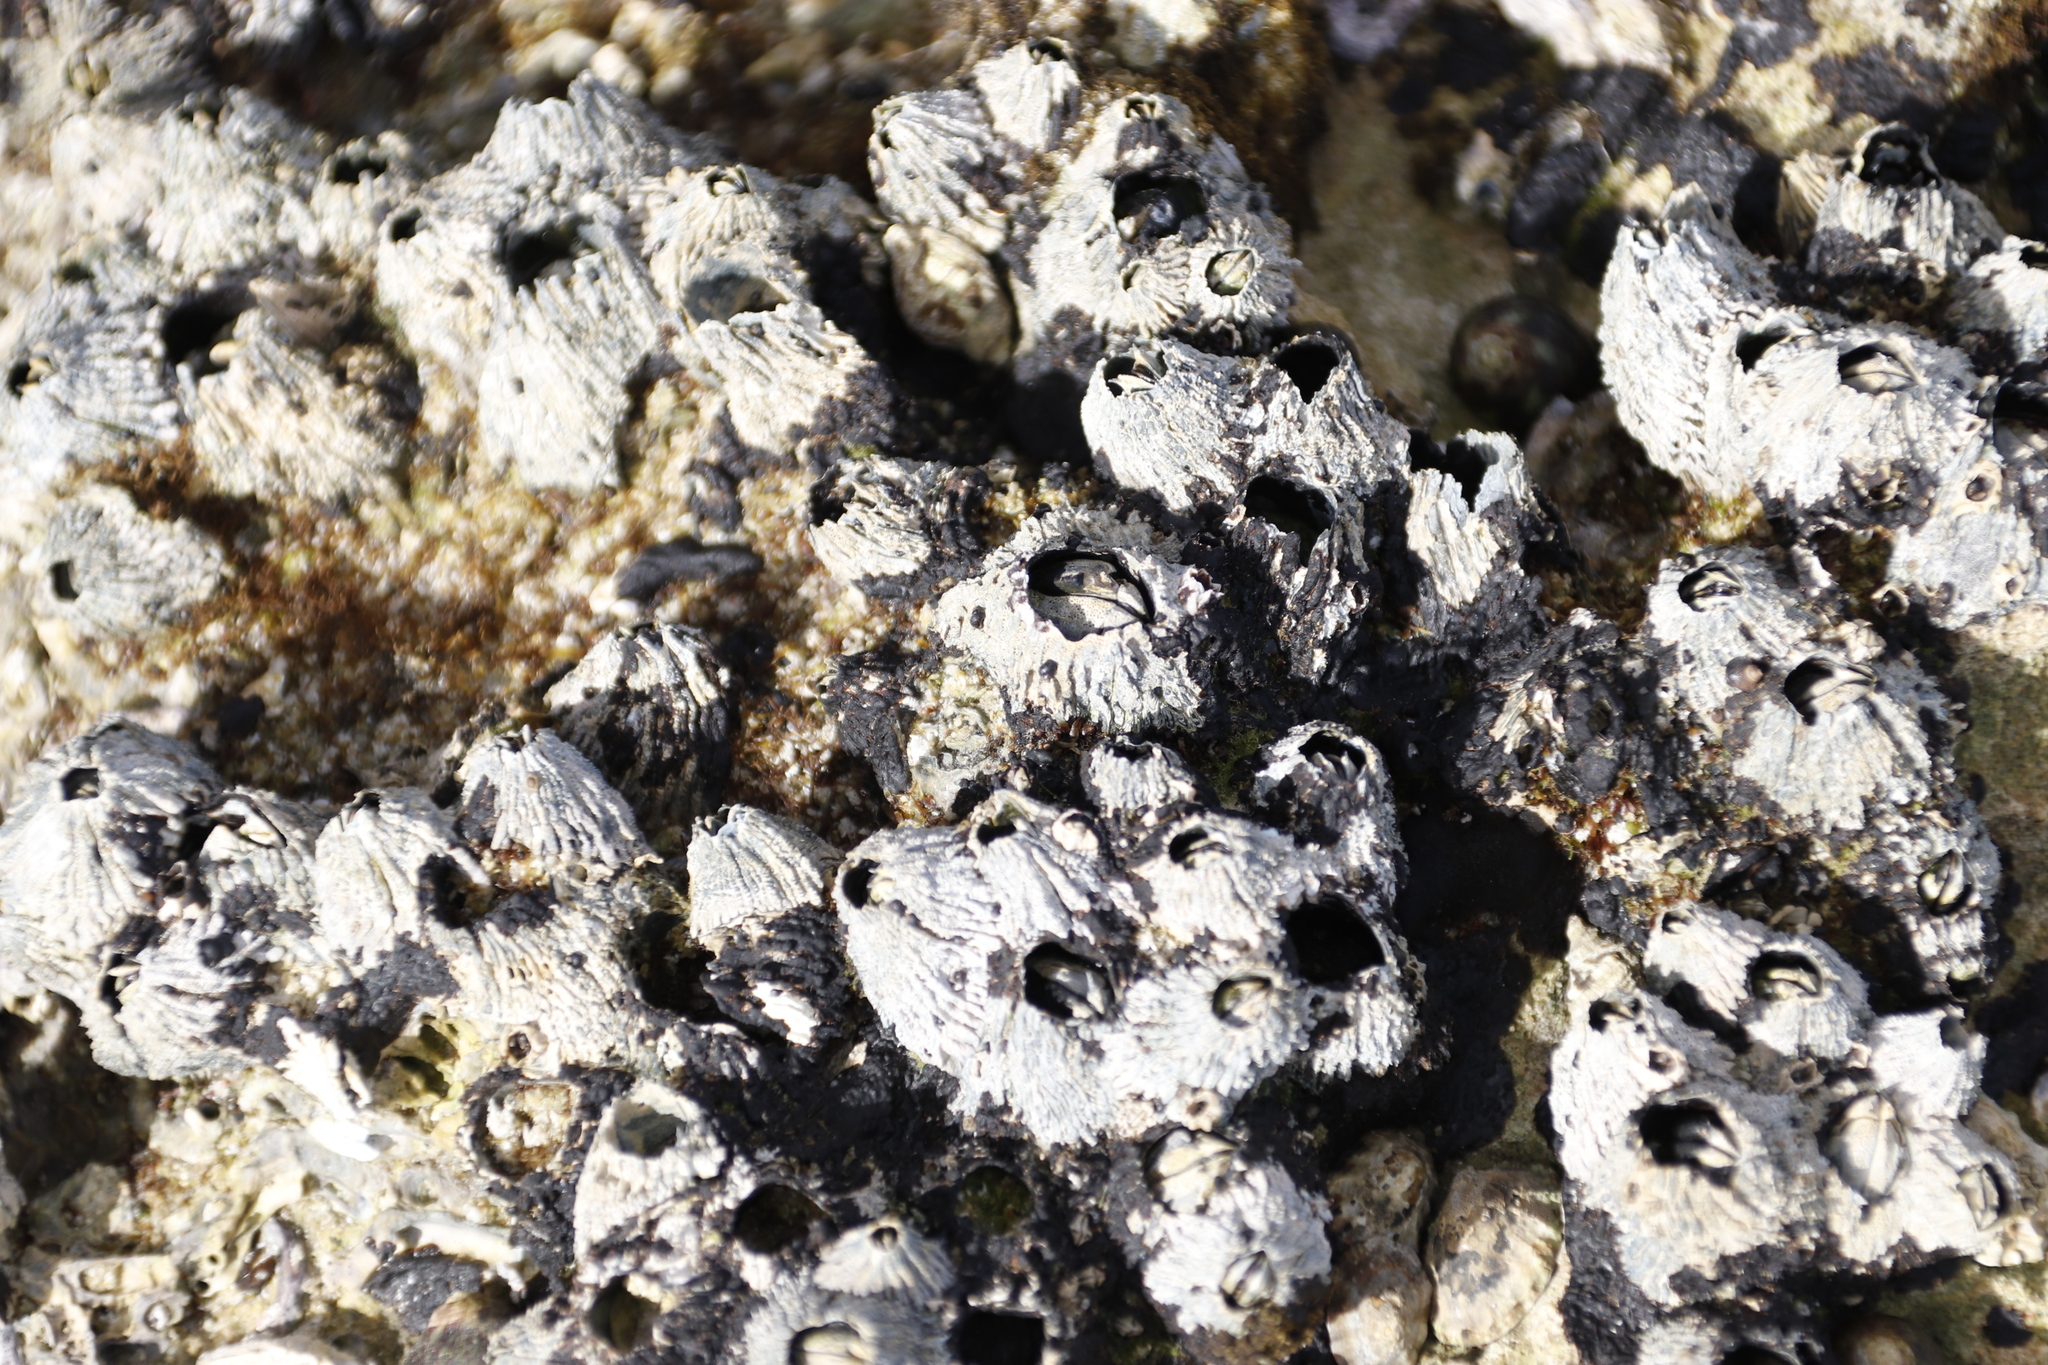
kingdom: Animalia
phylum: Arthropoda
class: Maxillopoda
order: Sessilia
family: Tetraclitidae
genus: Tetraclita
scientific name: Tetraclita serrata
